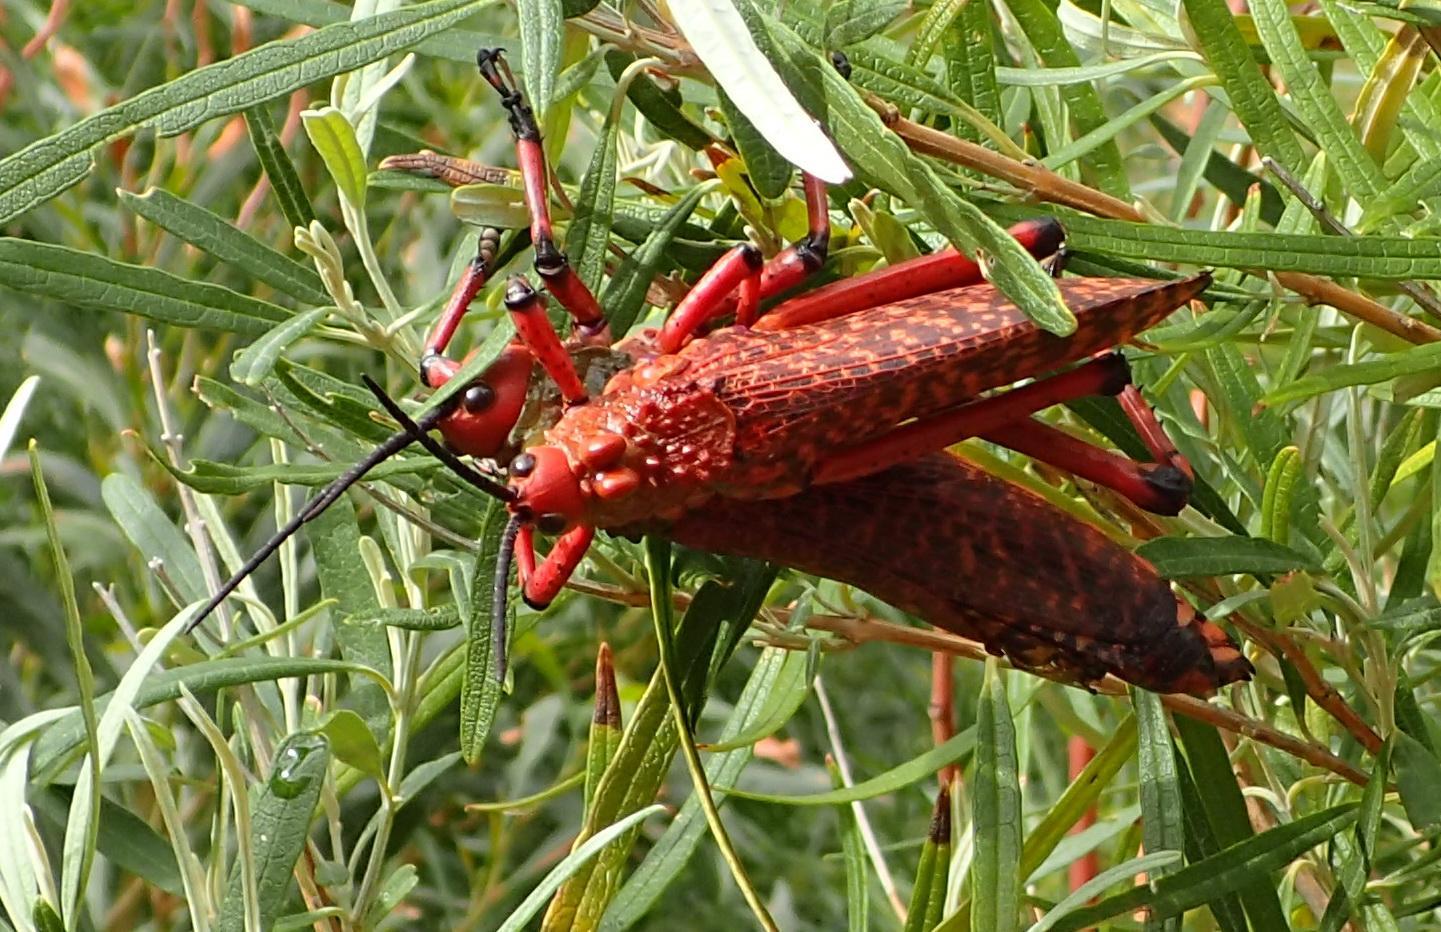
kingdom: Animalia
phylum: Arthropoda
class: Insecta
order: Orthoptera
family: Pyrgomorphidae
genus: Phymateus
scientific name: Phymateus leprosus
